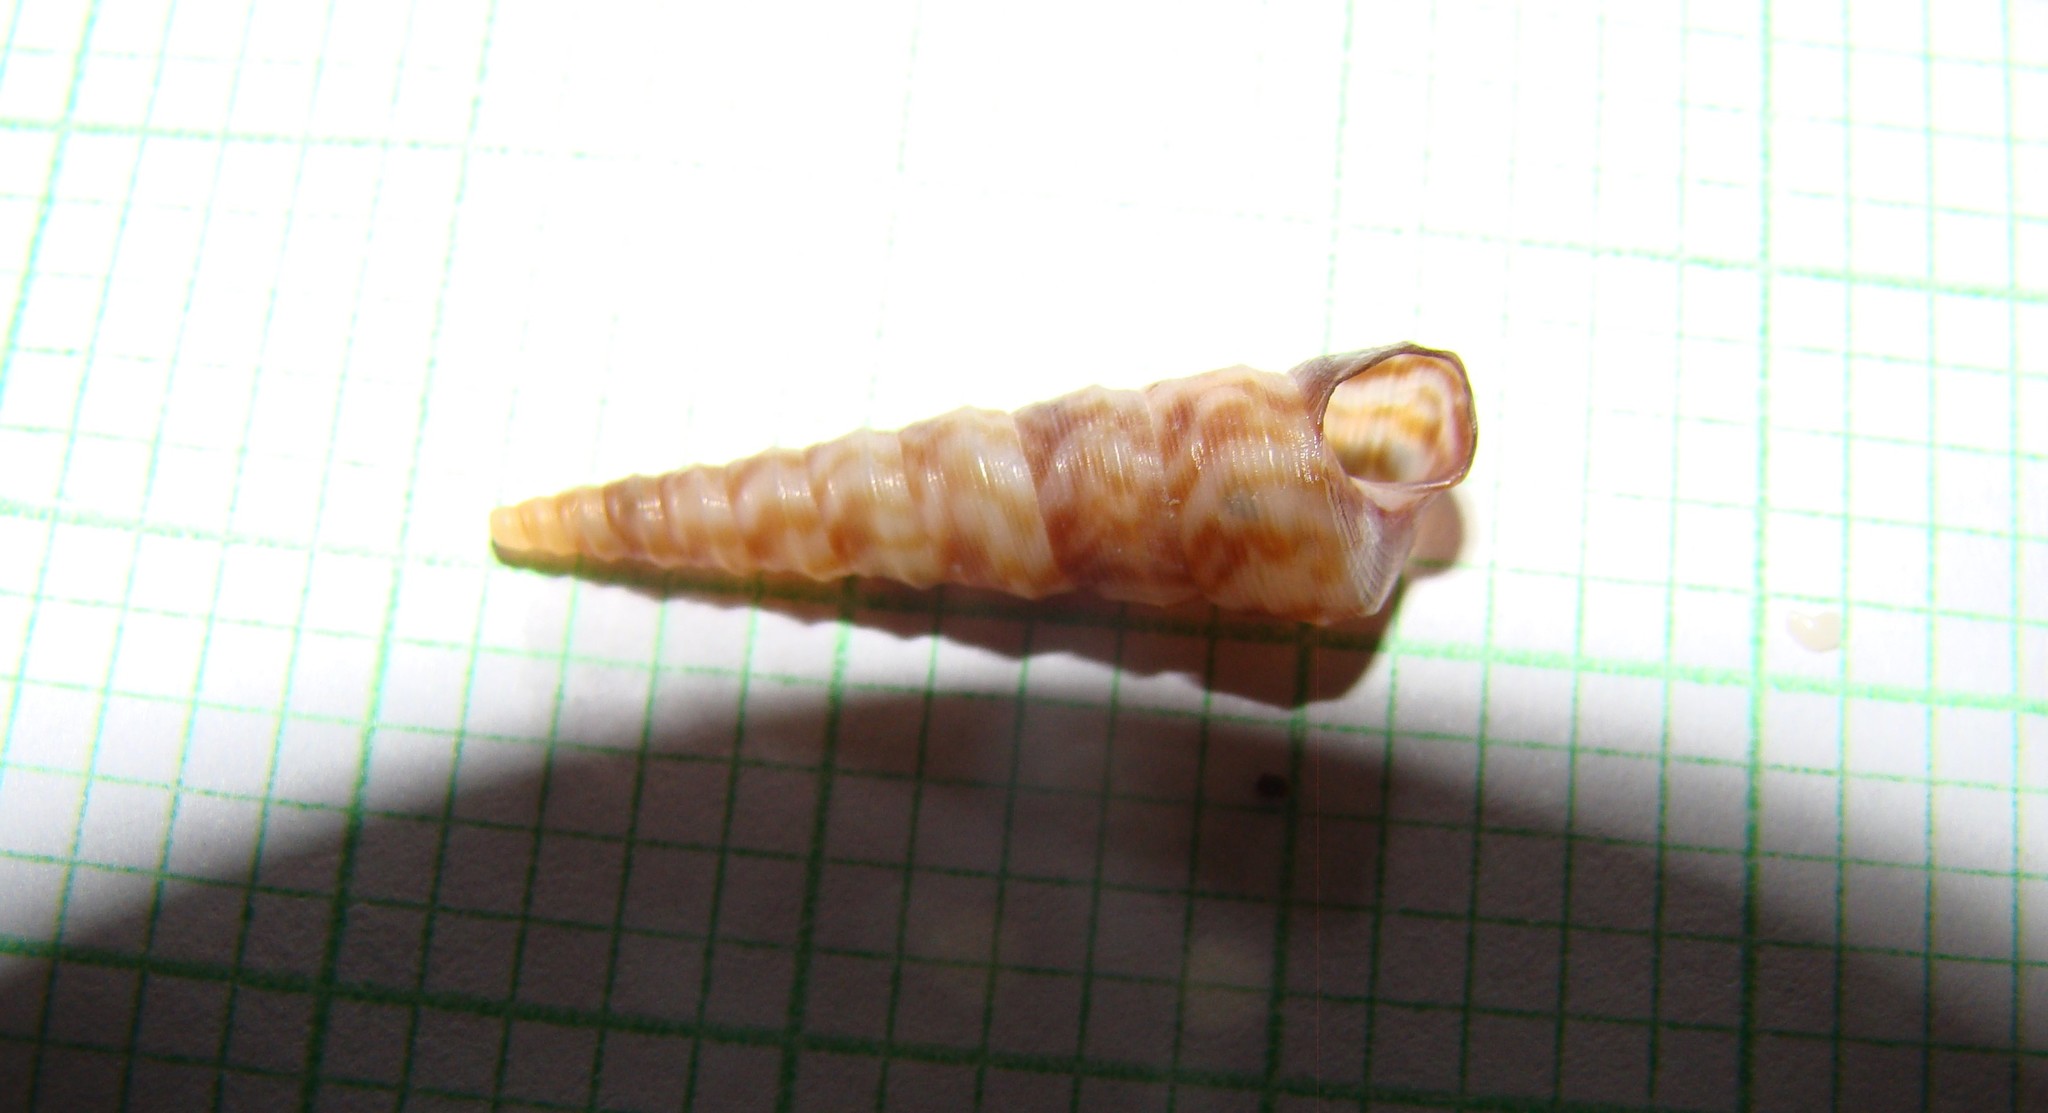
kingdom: Animalia
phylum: Mollusca
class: Gastropoda
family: Turritellidae
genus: Stiracolpus
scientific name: Stiracolpus pagoda
